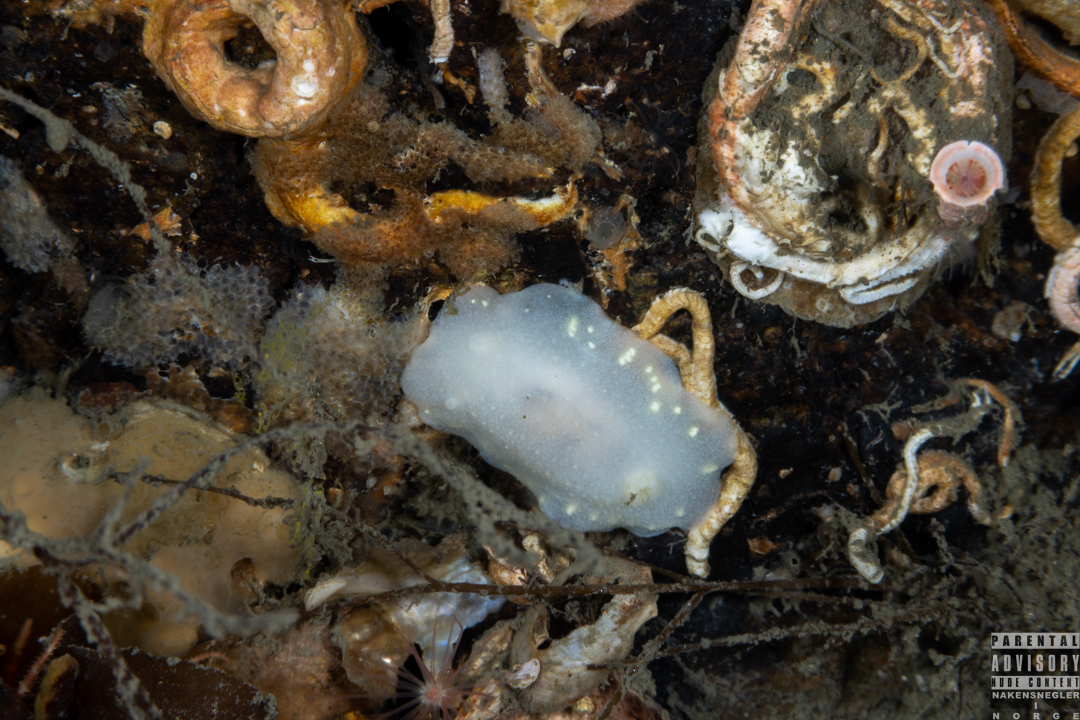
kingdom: Animalia
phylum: Mollusca
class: Gastropoda
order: Nudibranchia
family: Cadlinidae
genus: Cadlina
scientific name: Cadlina laevis
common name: White atlantic cadlina
